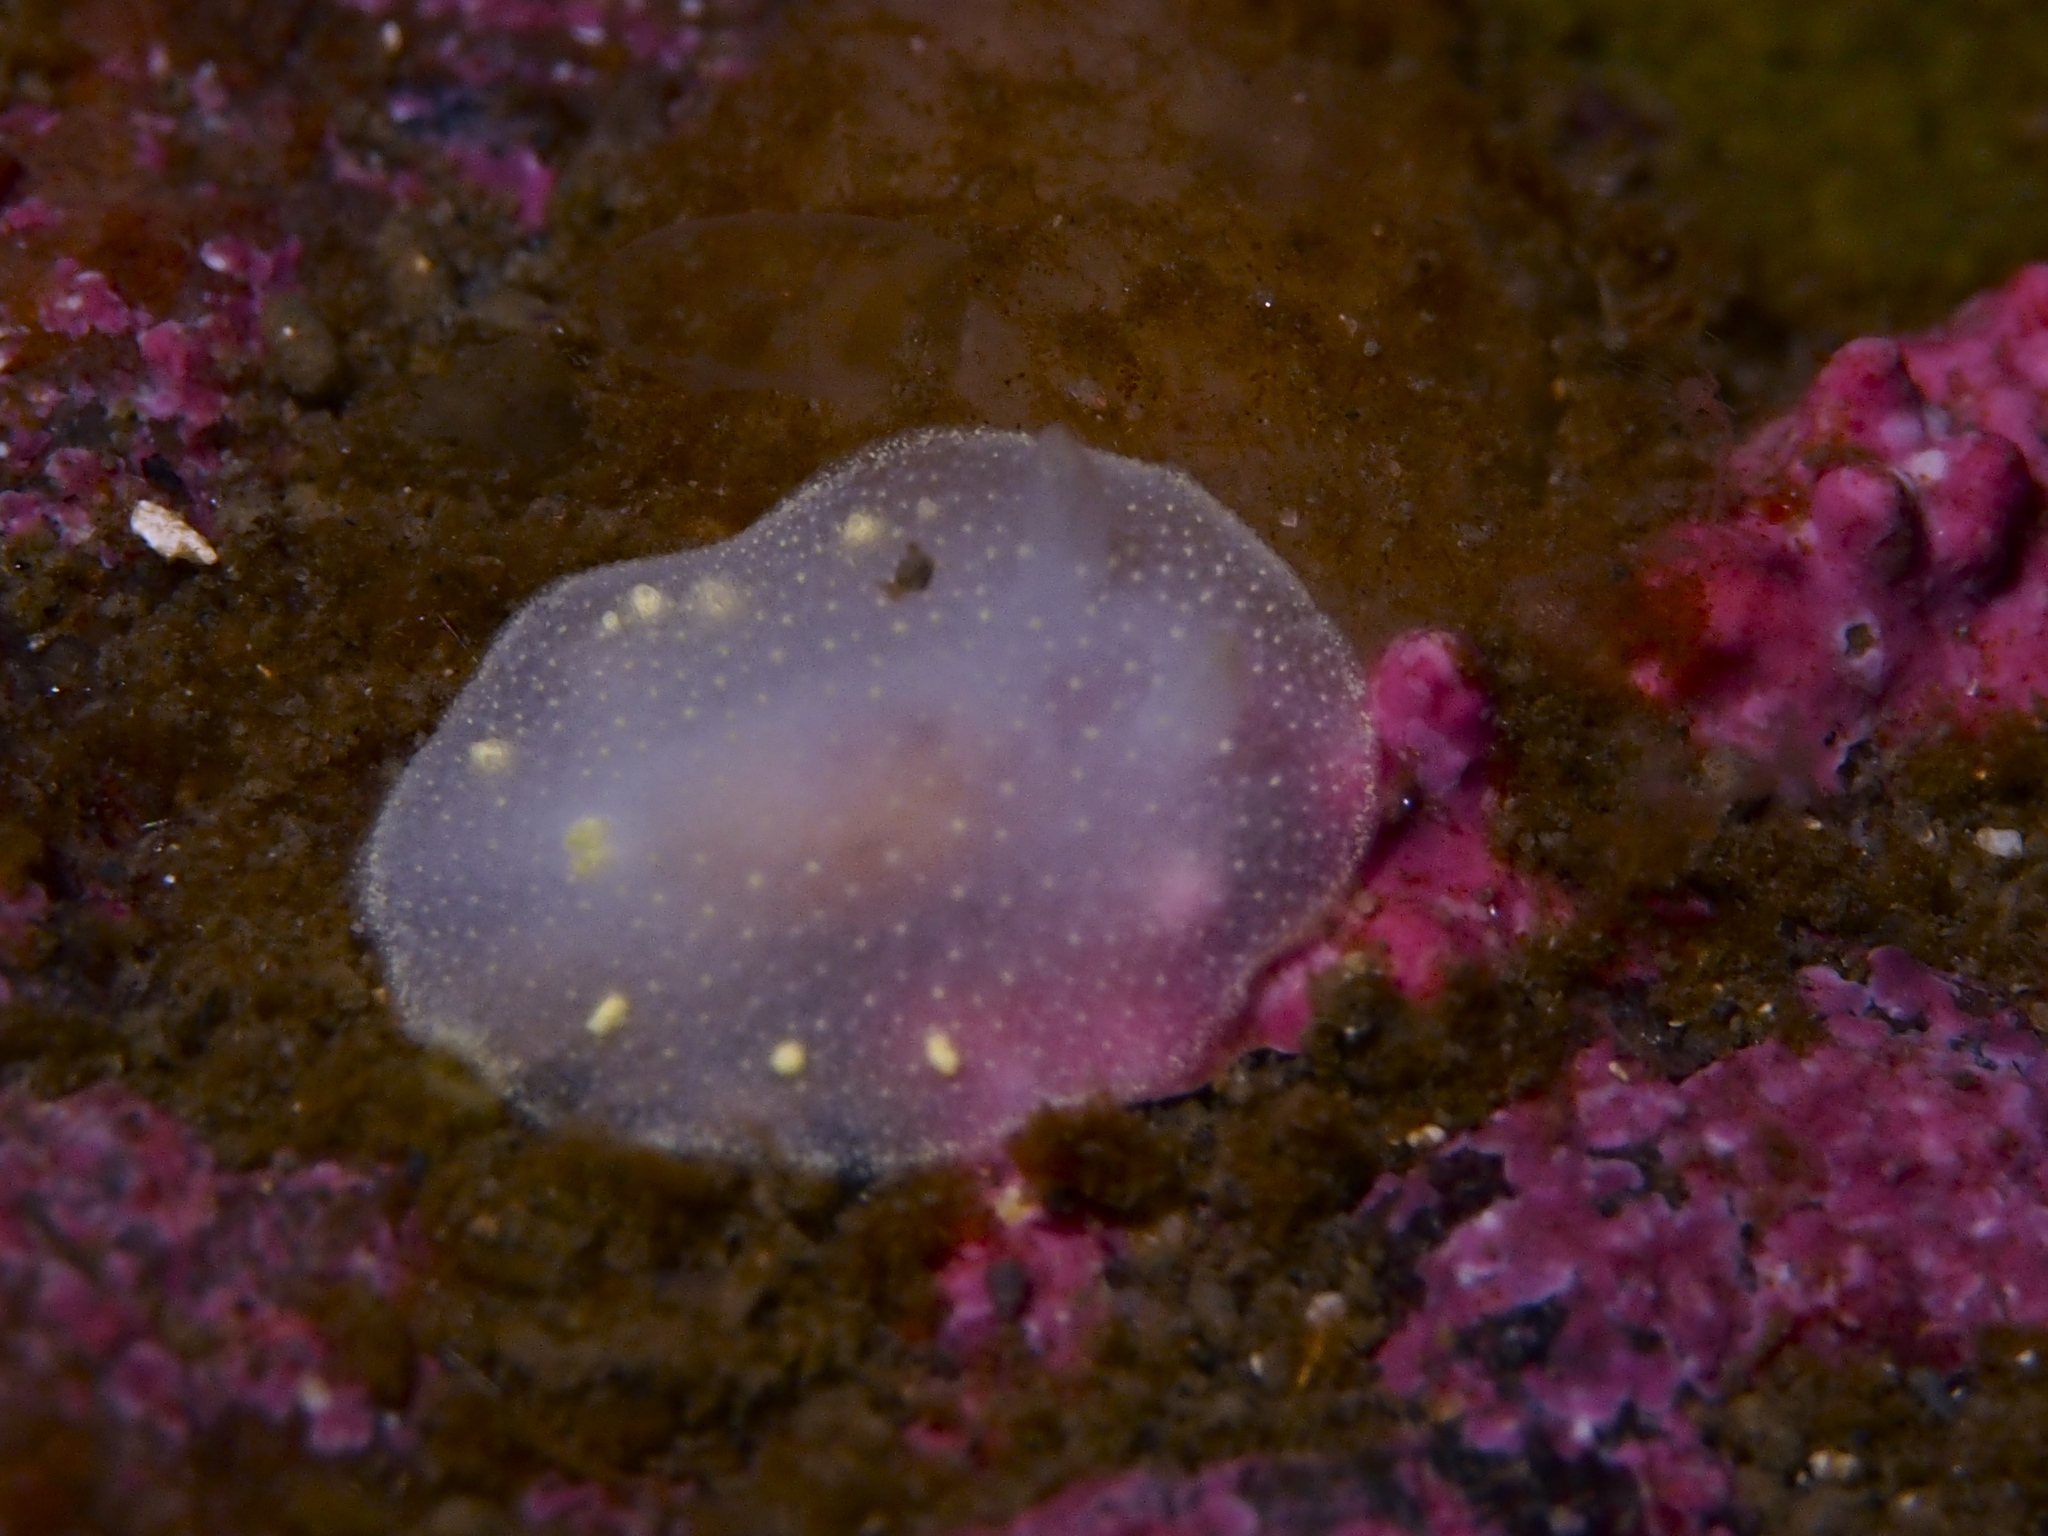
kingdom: Animalia
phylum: Mollusca
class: Gastropoda
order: Nudibranchia
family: Cadlinidae
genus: Cadlina
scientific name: Cadlina laevis
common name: White atlantic cadlina
